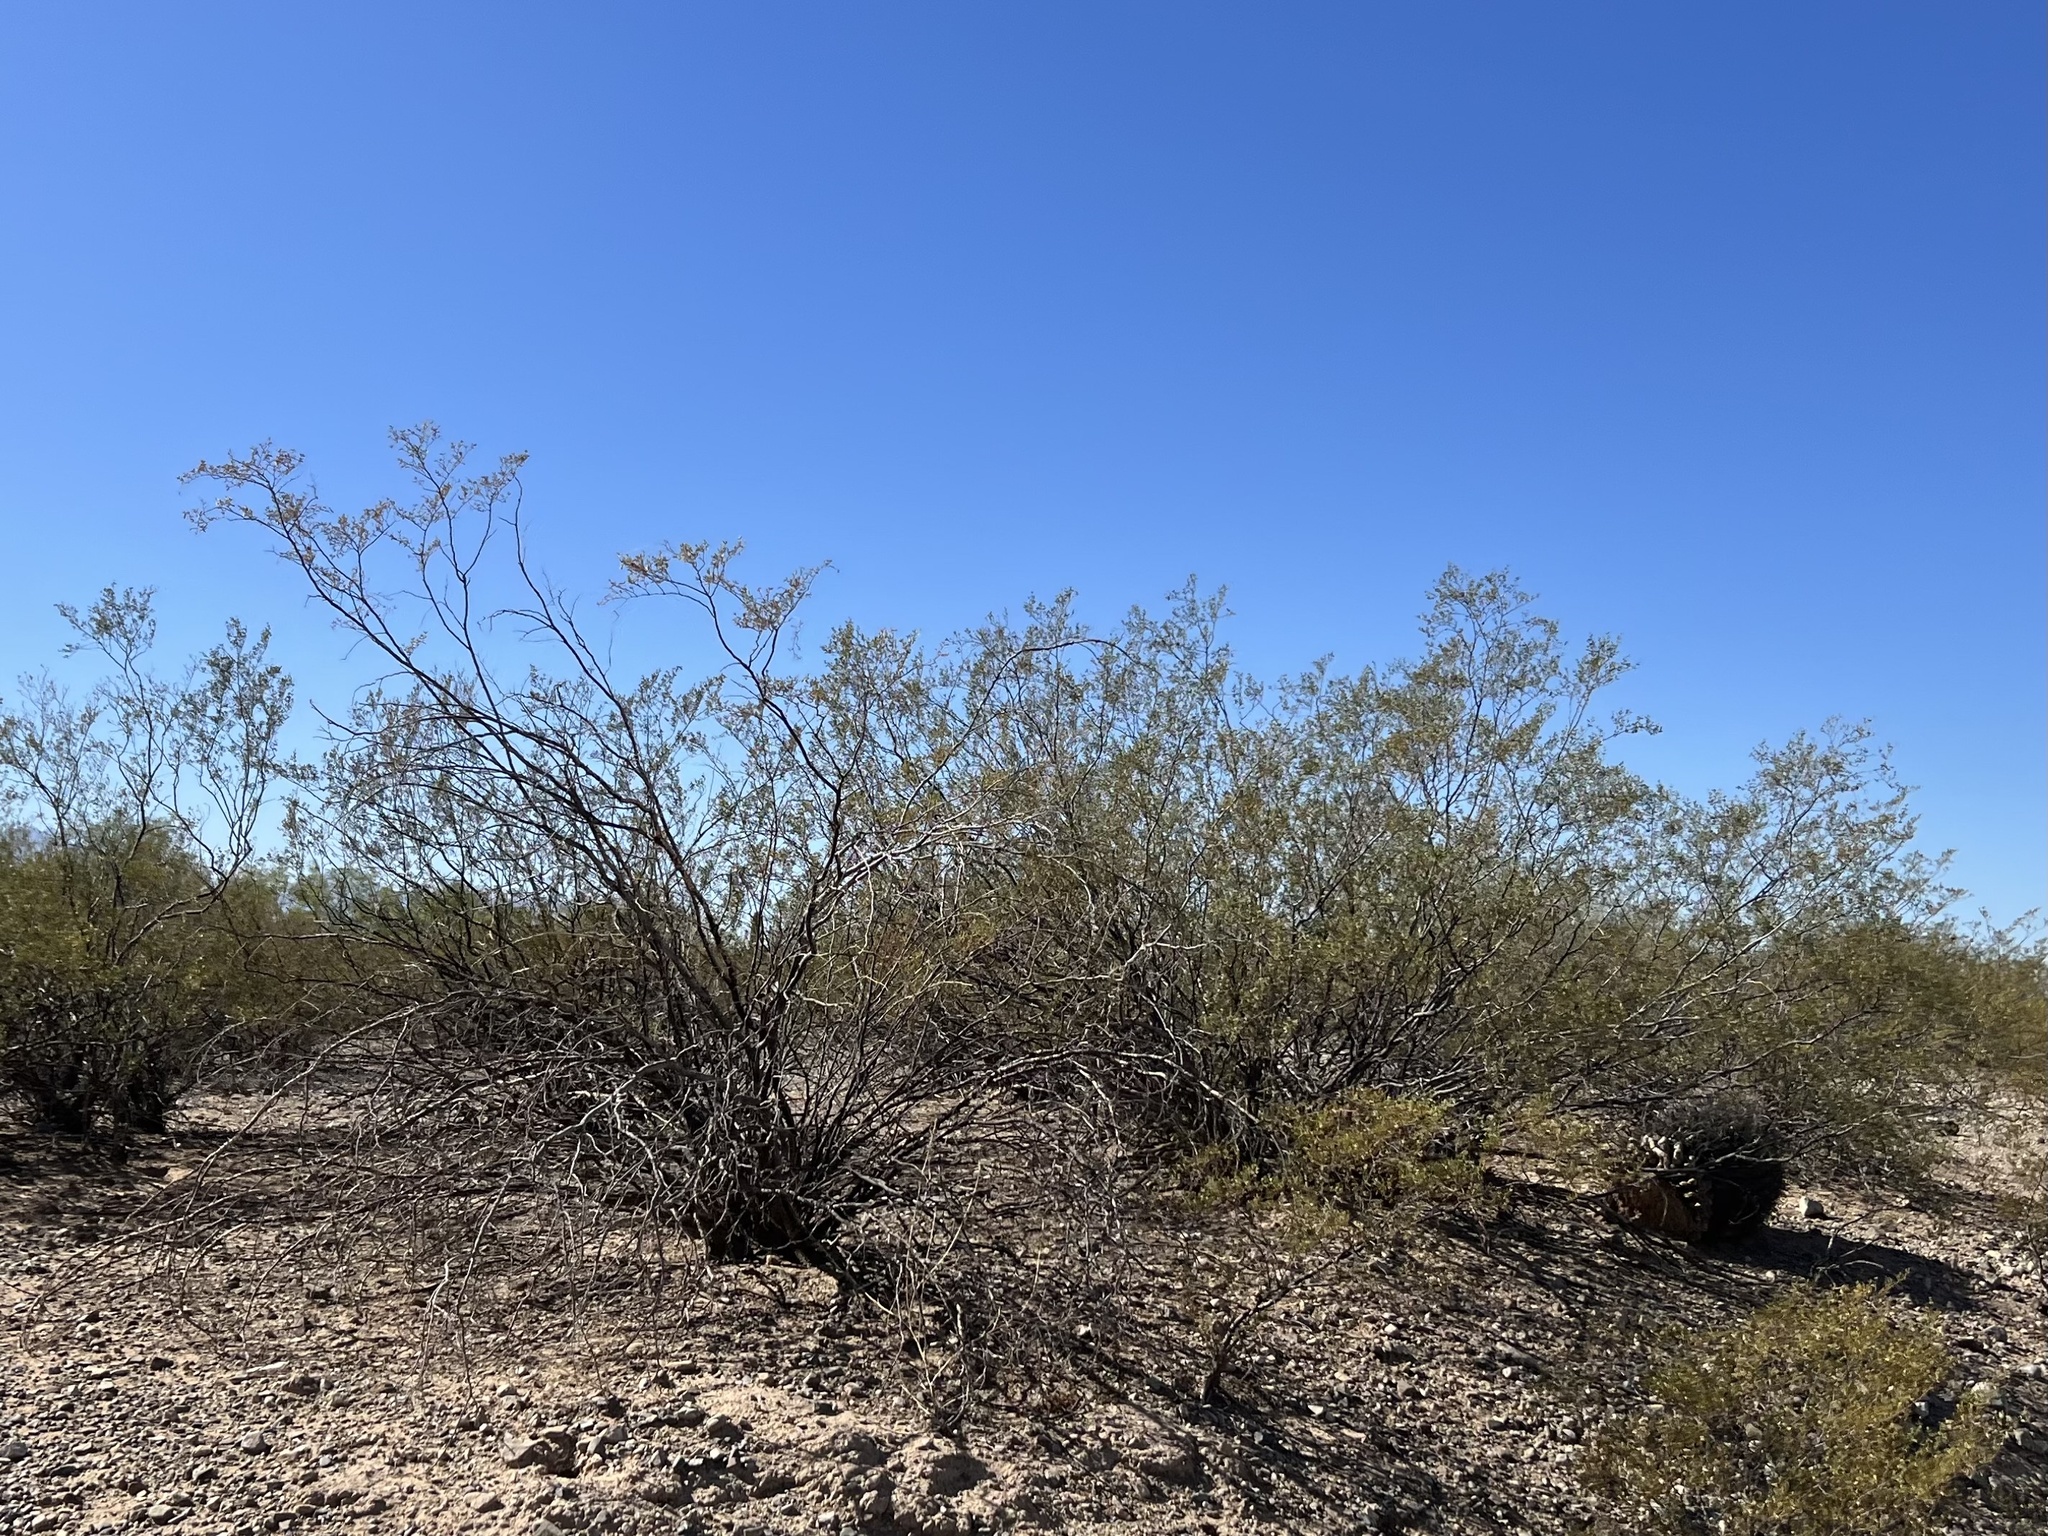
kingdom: Plantae
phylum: Tracheophyta
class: Magnoliopsida
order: Zygophyllales
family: Zygophyllaceae
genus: Larrea
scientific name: Larrea tridentata
